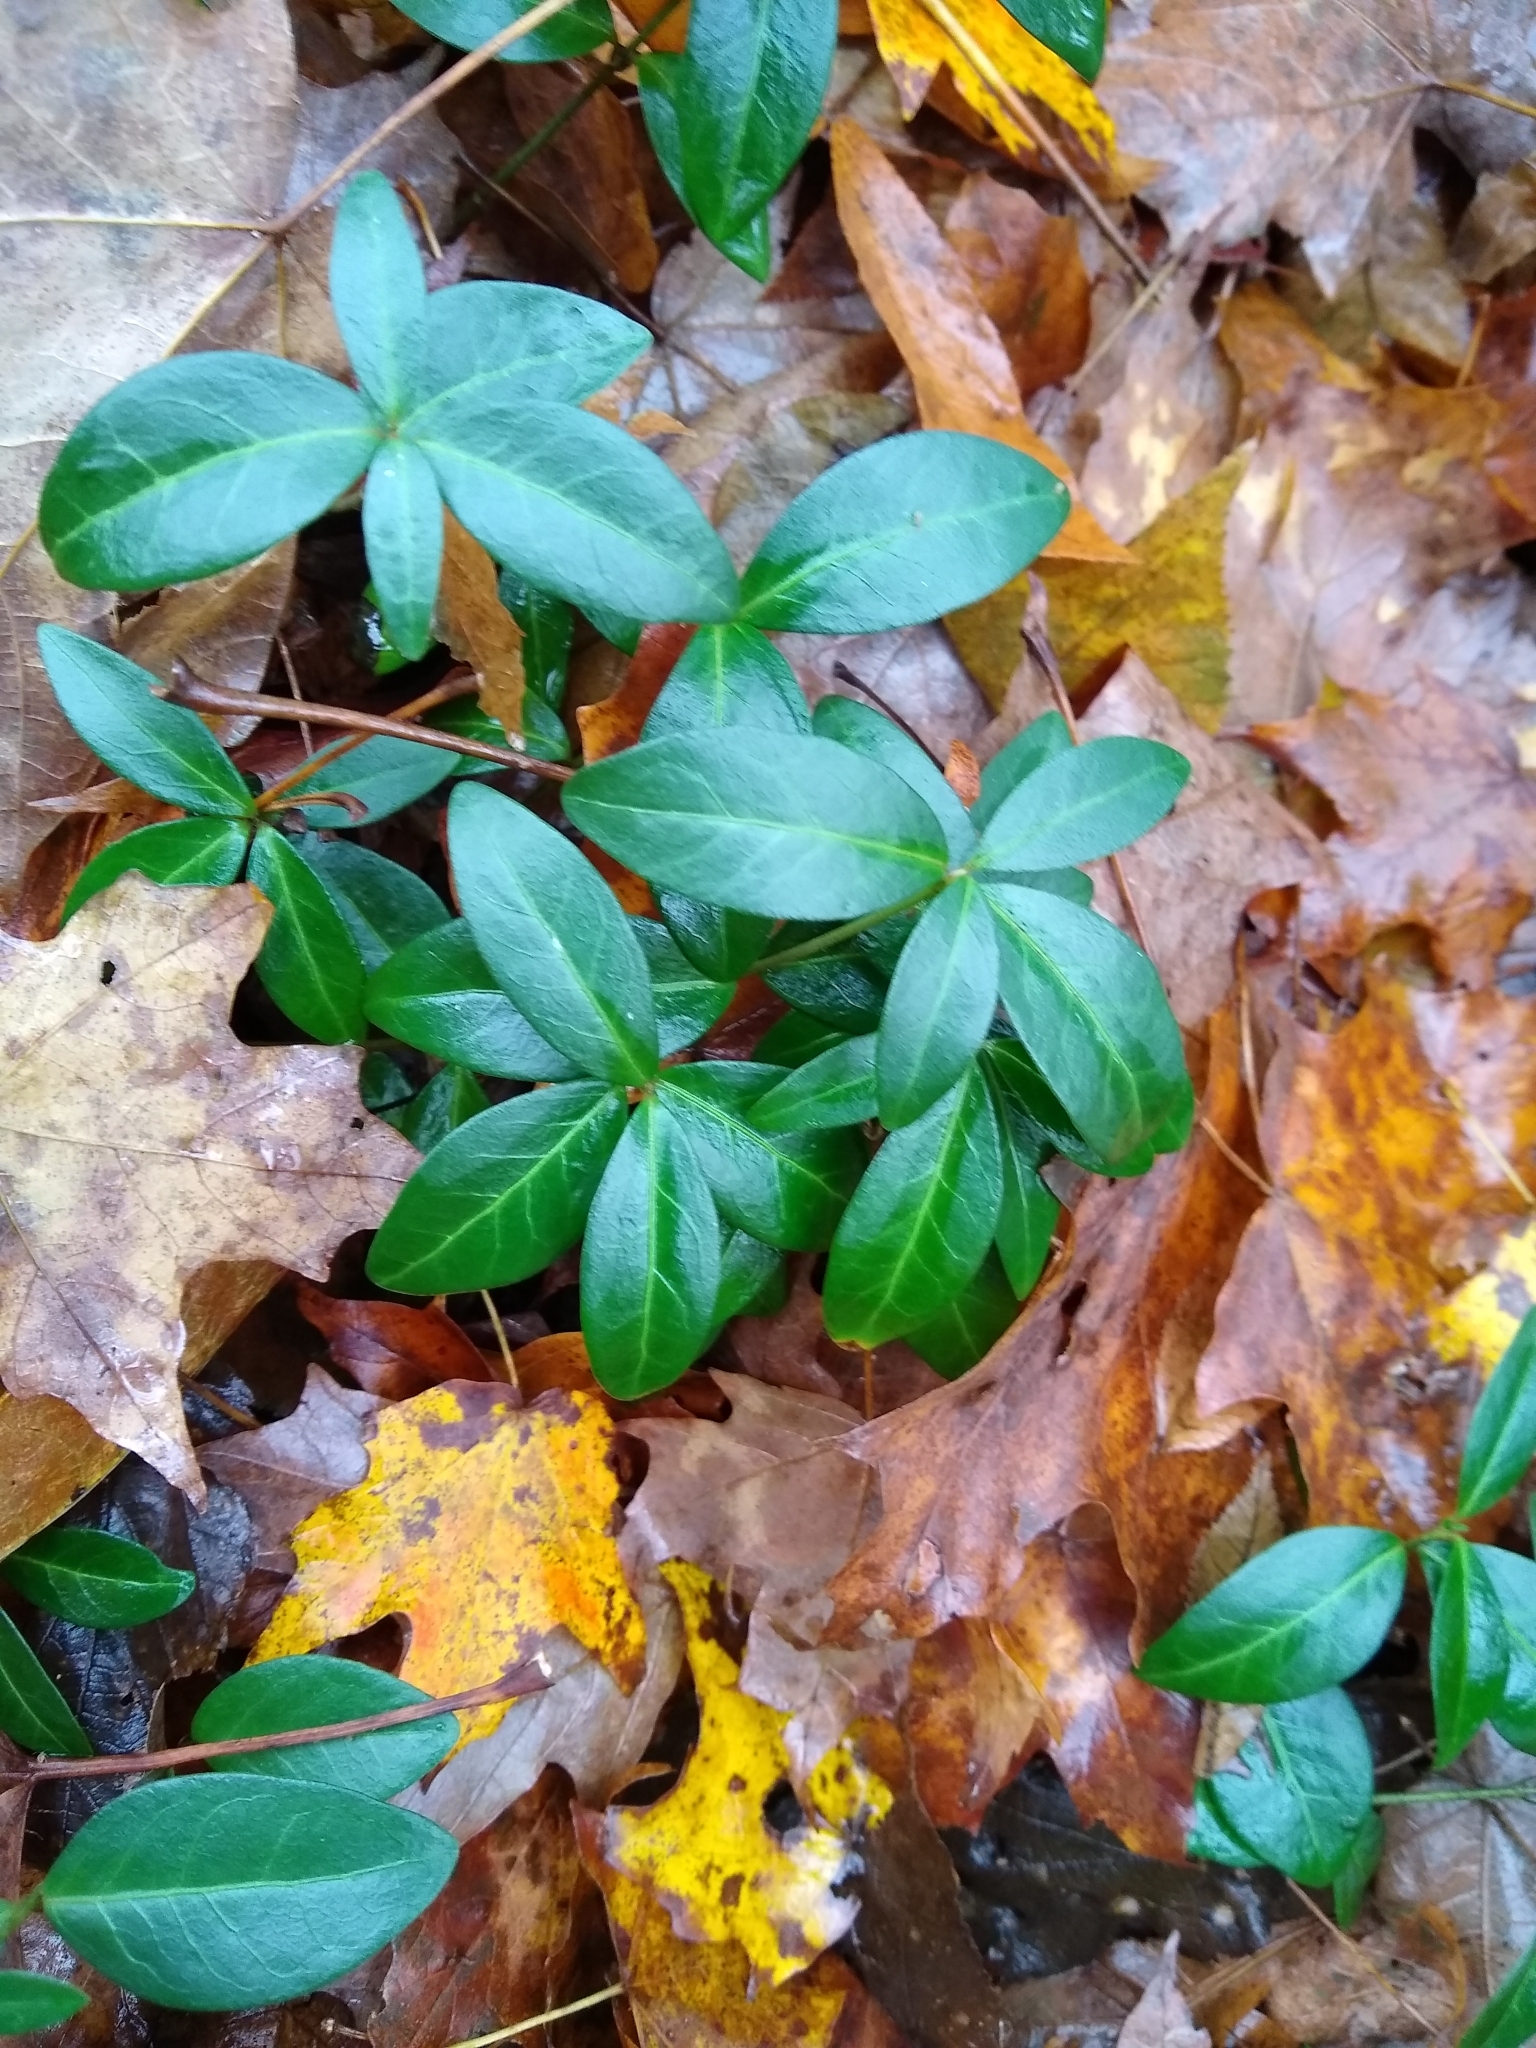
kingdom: Plantae
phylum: Tracheophyta
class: Magnoliopsida
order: Gentianales
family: Apocynaceae
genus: Vinca
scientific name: Vinca minor
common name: Lesser periwinkle
